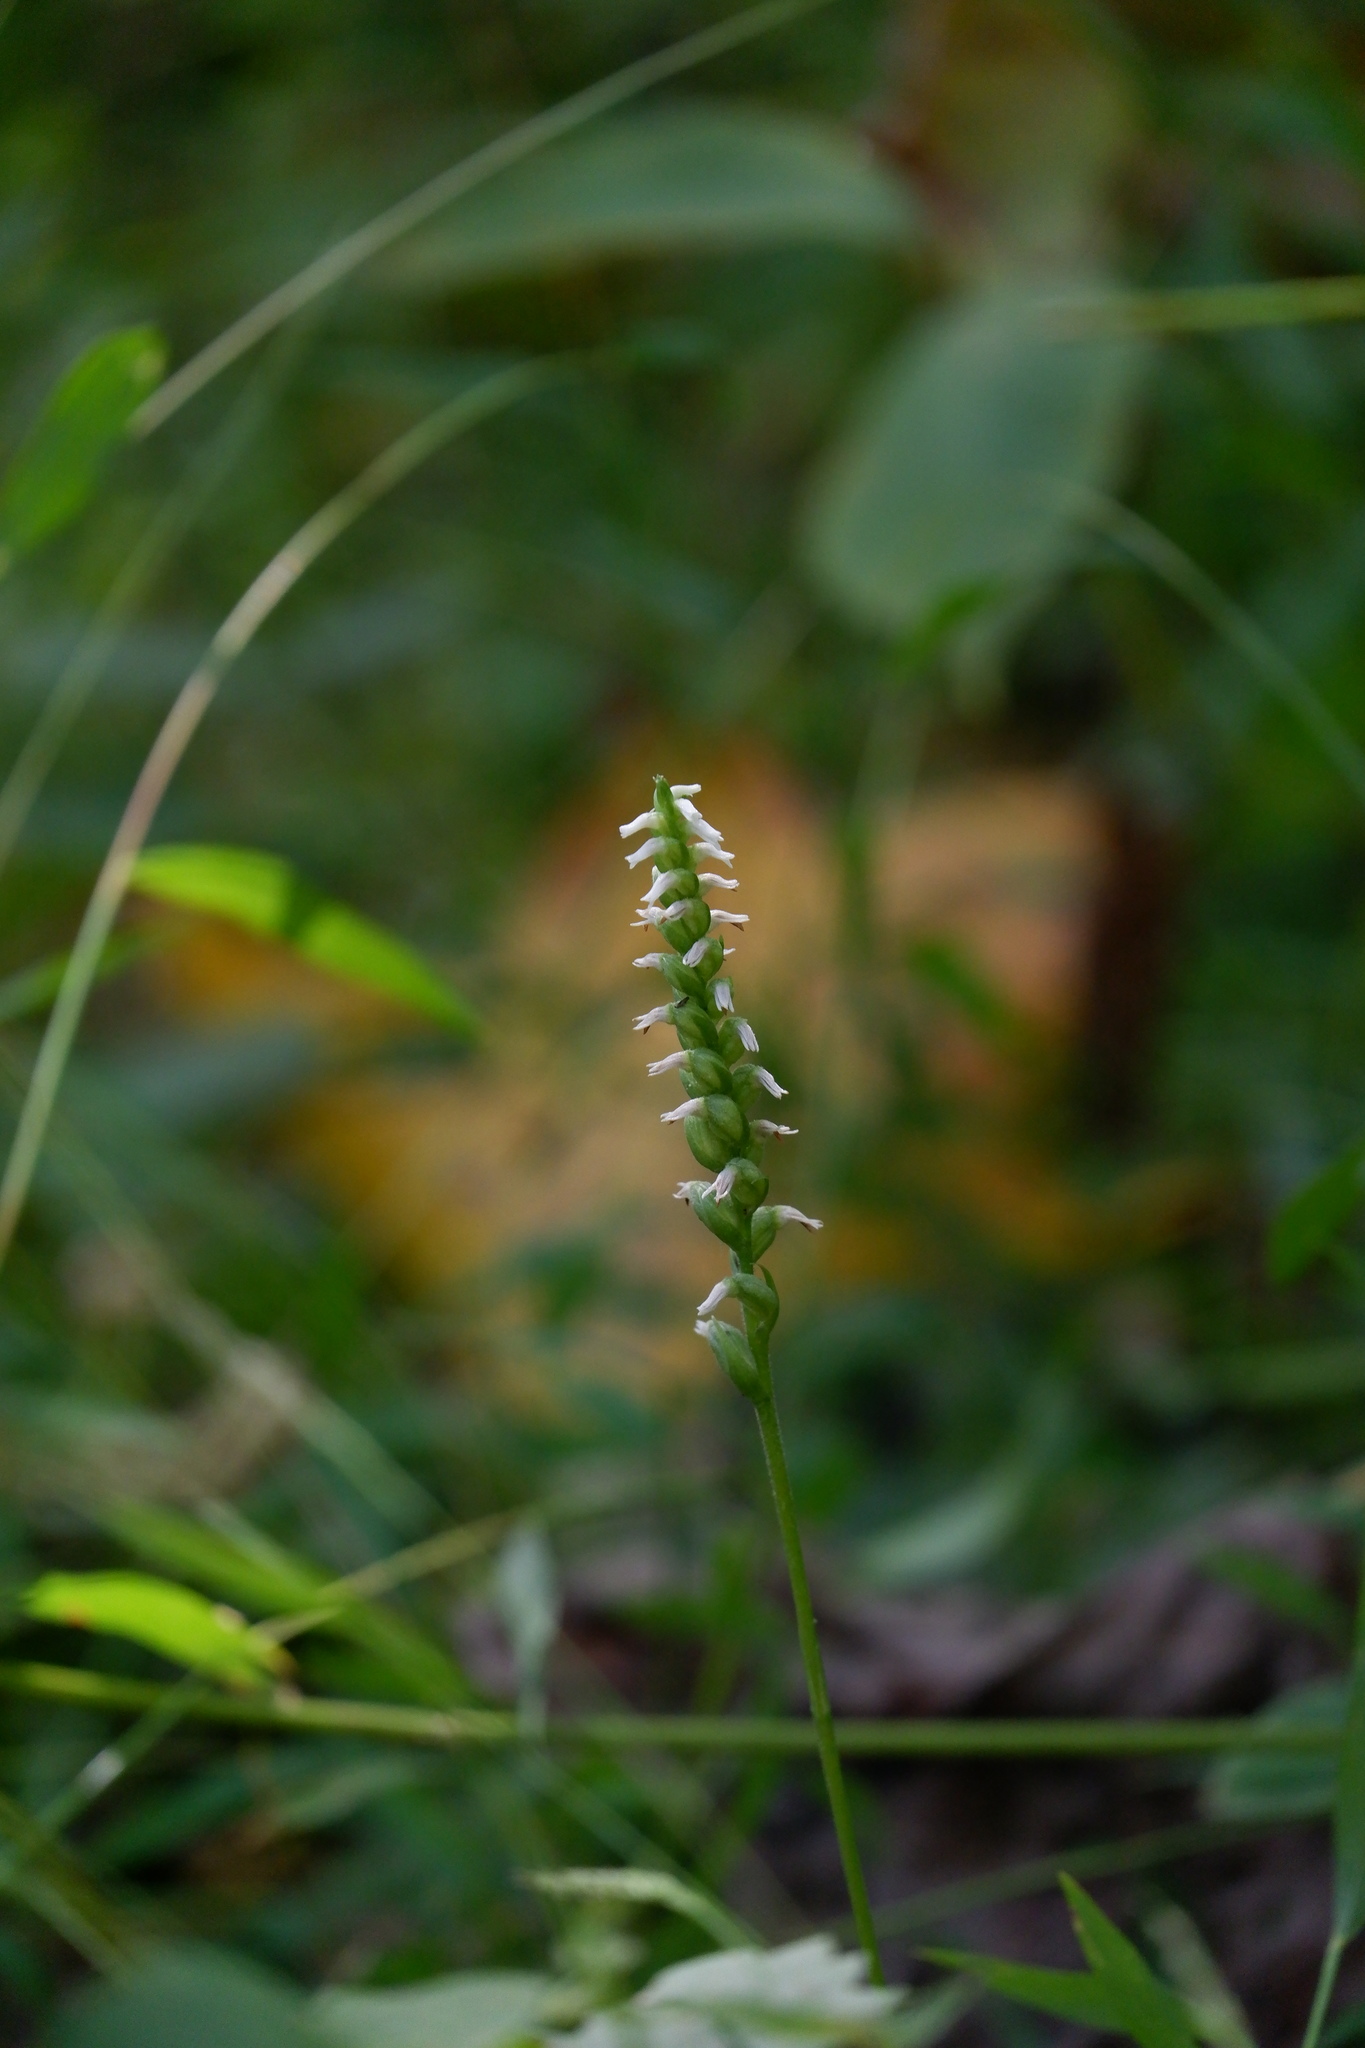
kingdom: Plantae
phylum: Tracheophyta
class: Liliopsida
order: Asparagales
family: Orchidaceae
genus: Spiranthes
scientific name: Spiranthes ovalis
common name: October ladies'-tresses
